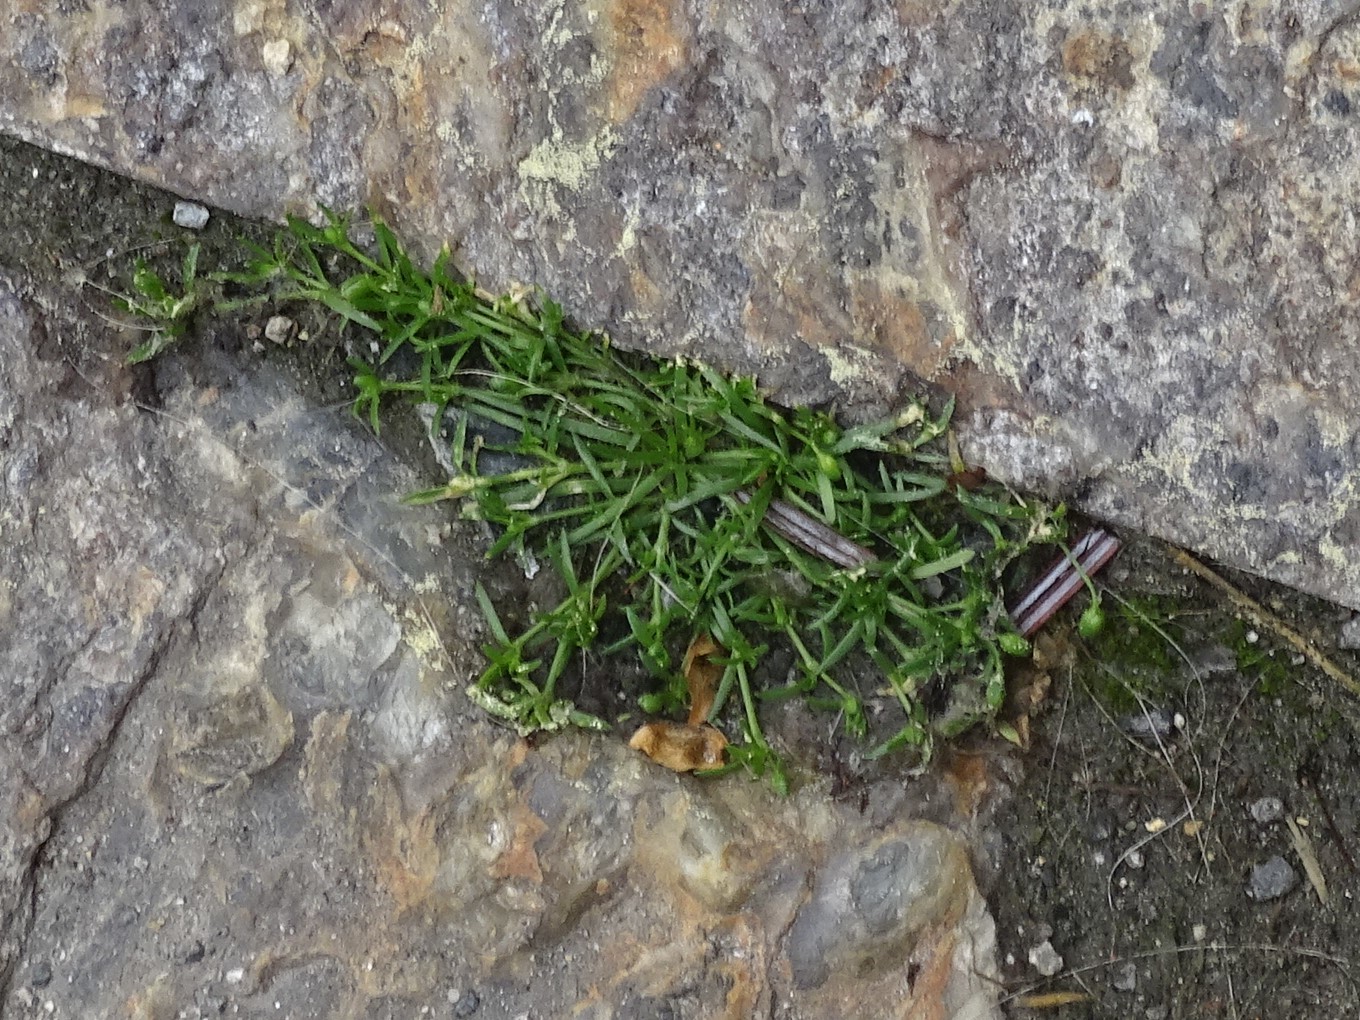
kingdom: Plantae
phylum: Tracheophyta
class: Magnoliopsida
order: Caryophyllales
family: Caryophyllaceae
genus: Sagina
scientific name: Sagina procumbens
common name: Procumbent pearlwort
